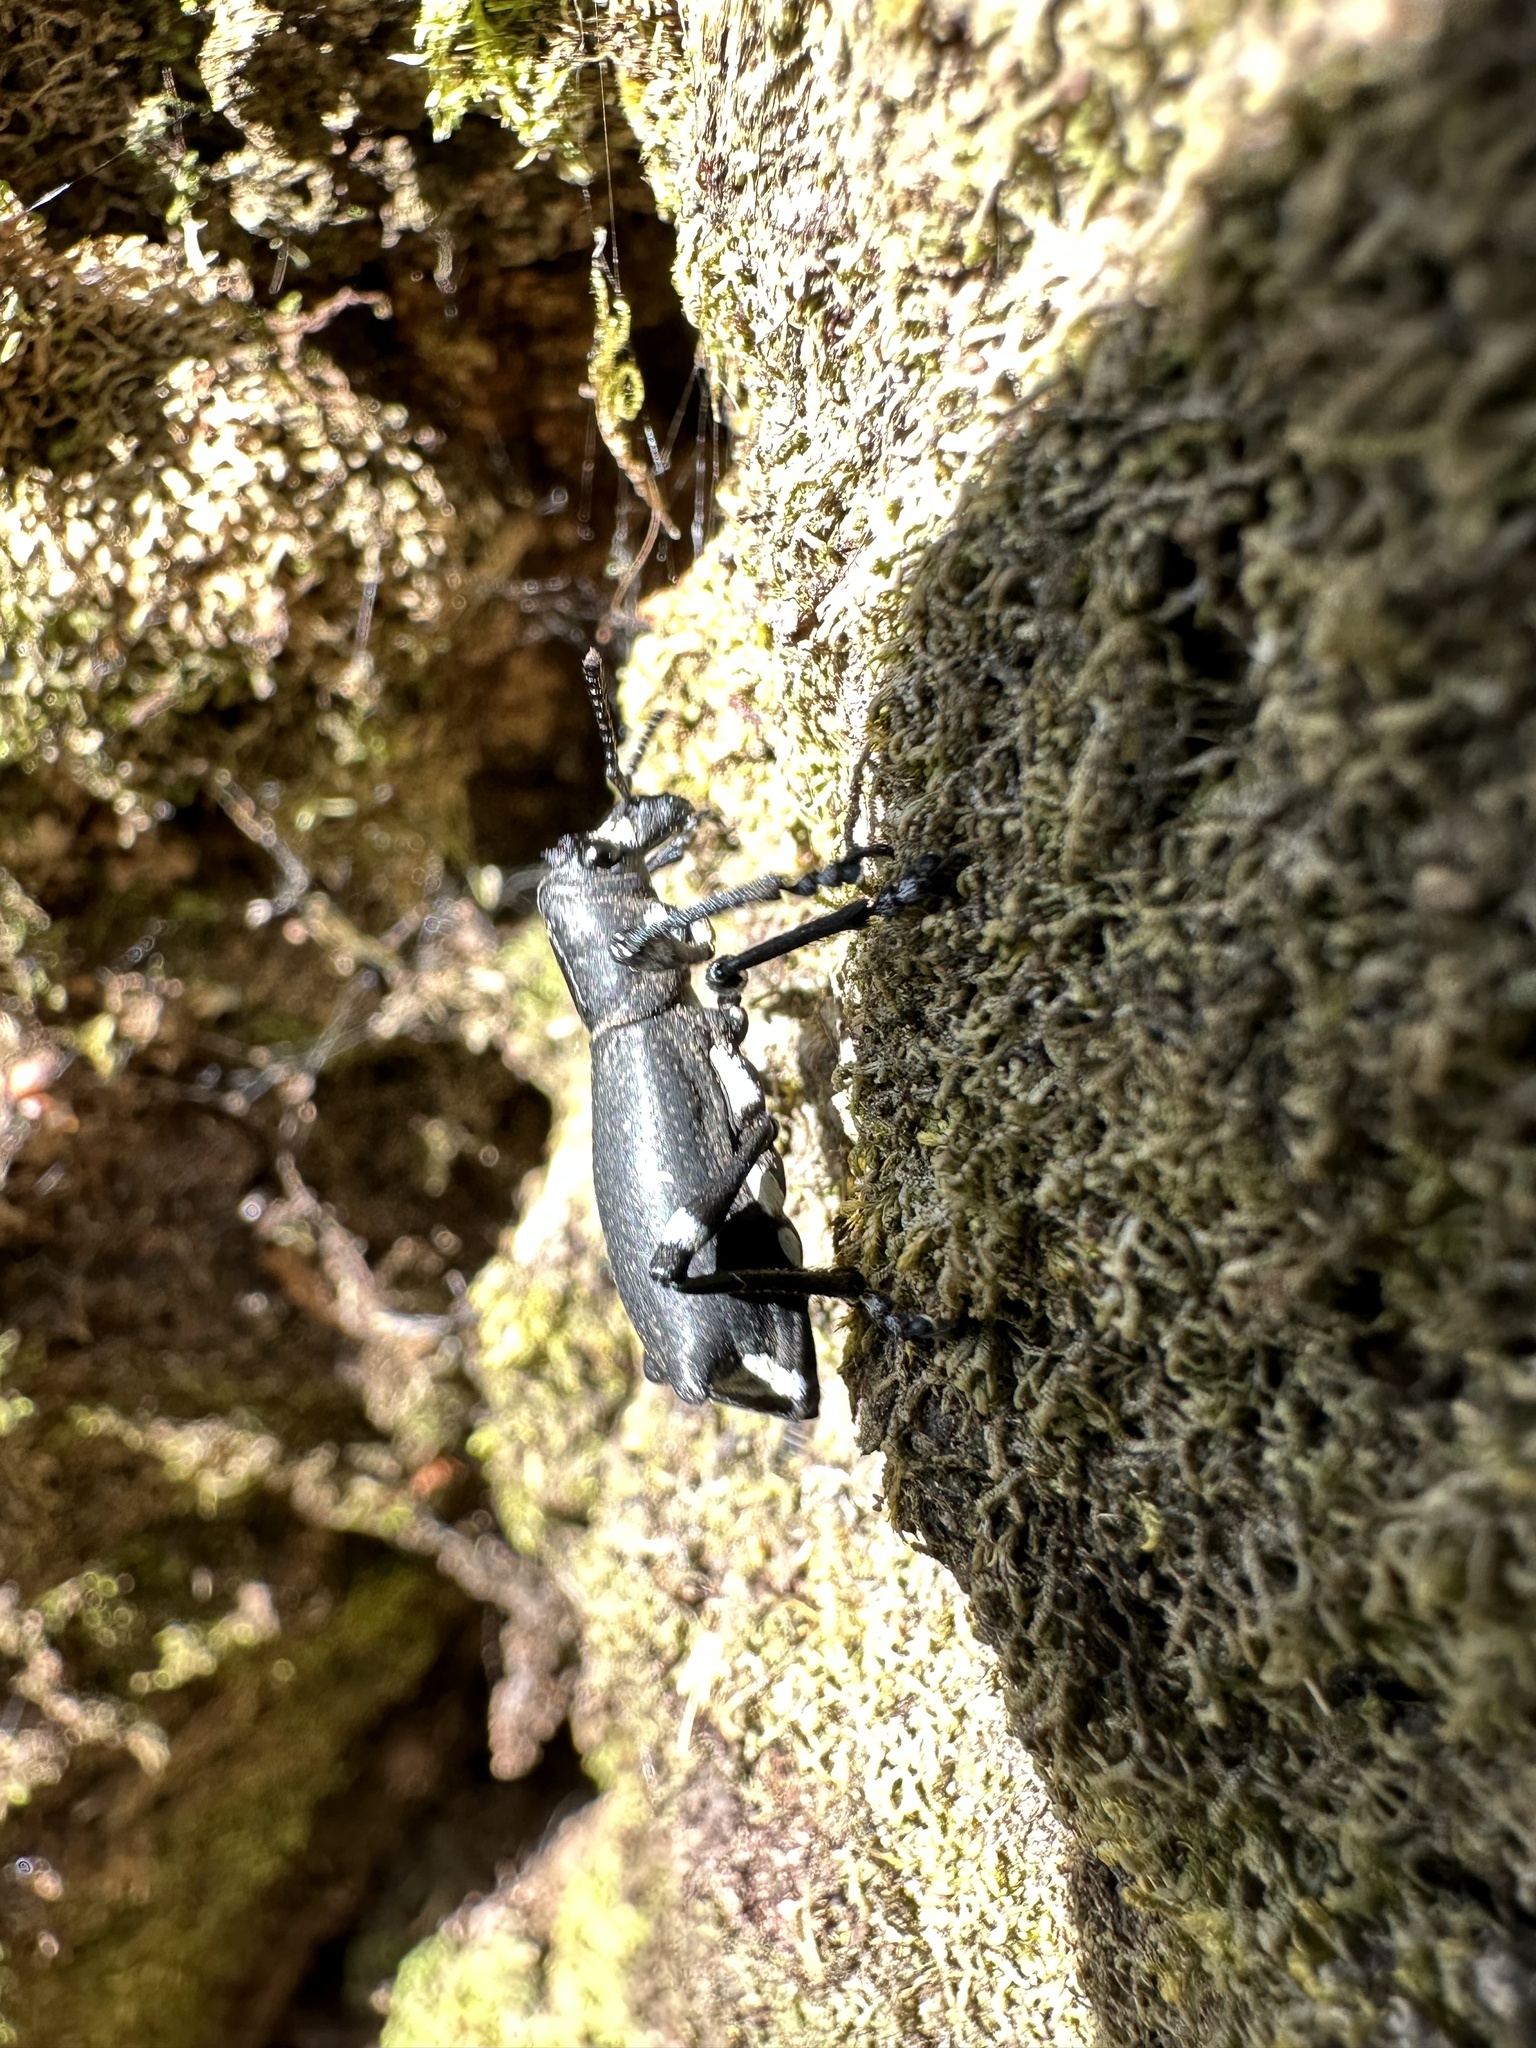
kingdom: Animalia
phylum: Arthropoda
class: Insecta
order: Coleoptera
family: Curculionidae
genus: Aegorhinus
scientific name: Aegorhinus
